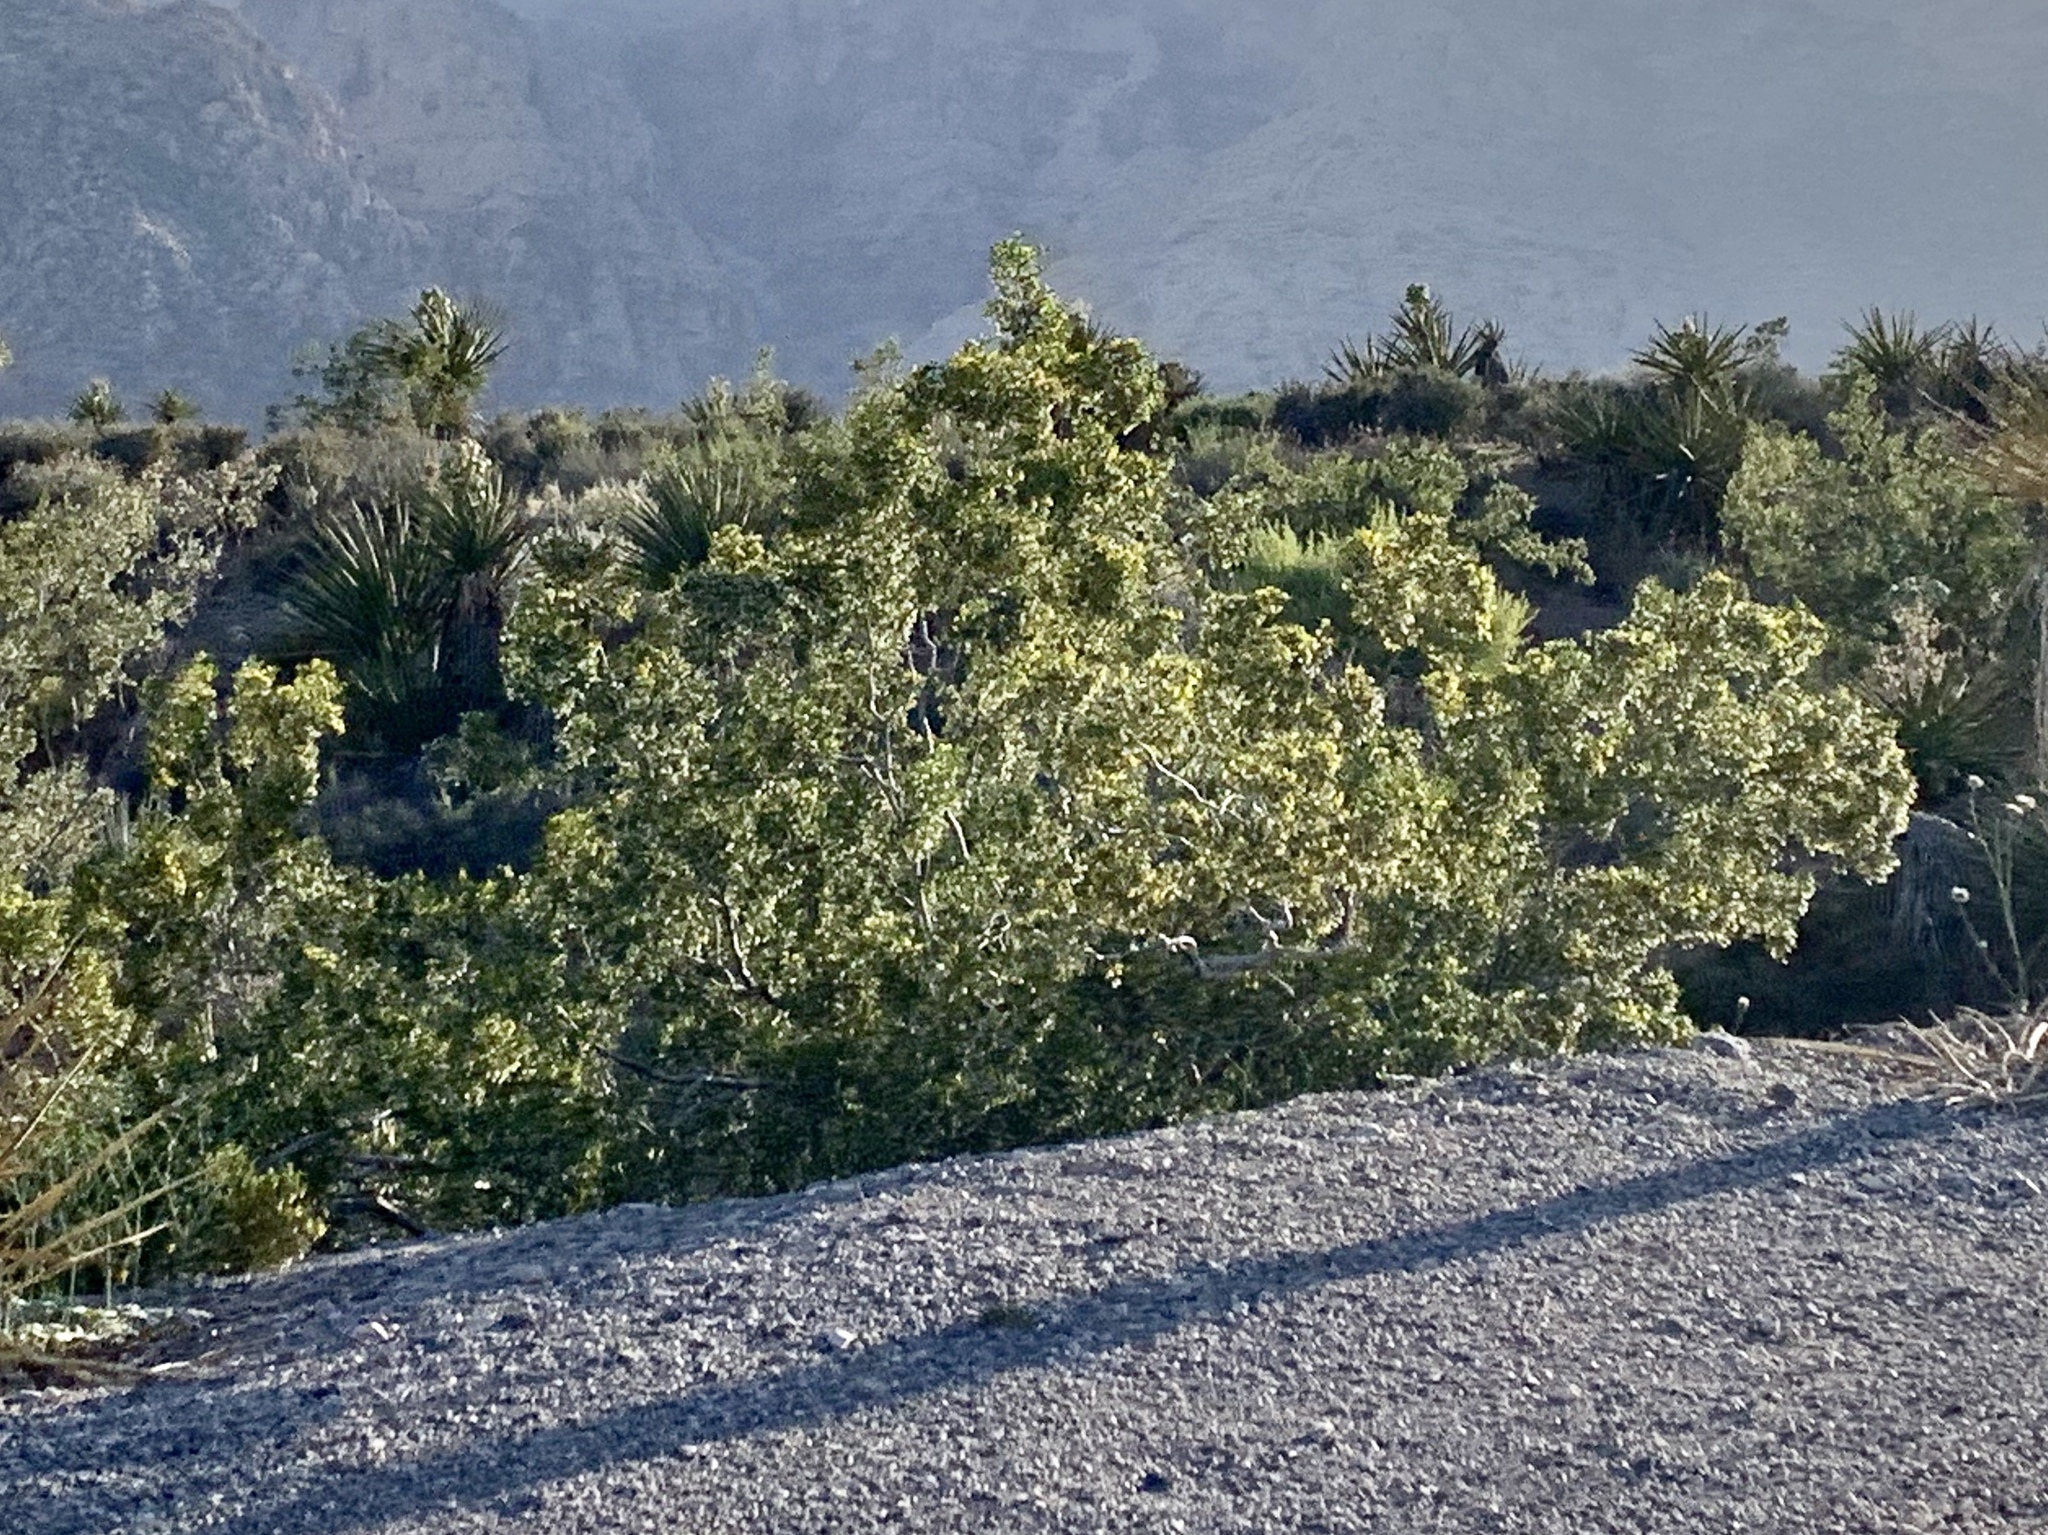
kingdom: Plantae
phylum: Tracheophyta
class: Magnoliopsida
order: Zygophyllales
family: Zygophyllaceae
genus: Larrea
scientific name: Larrea tridentata
